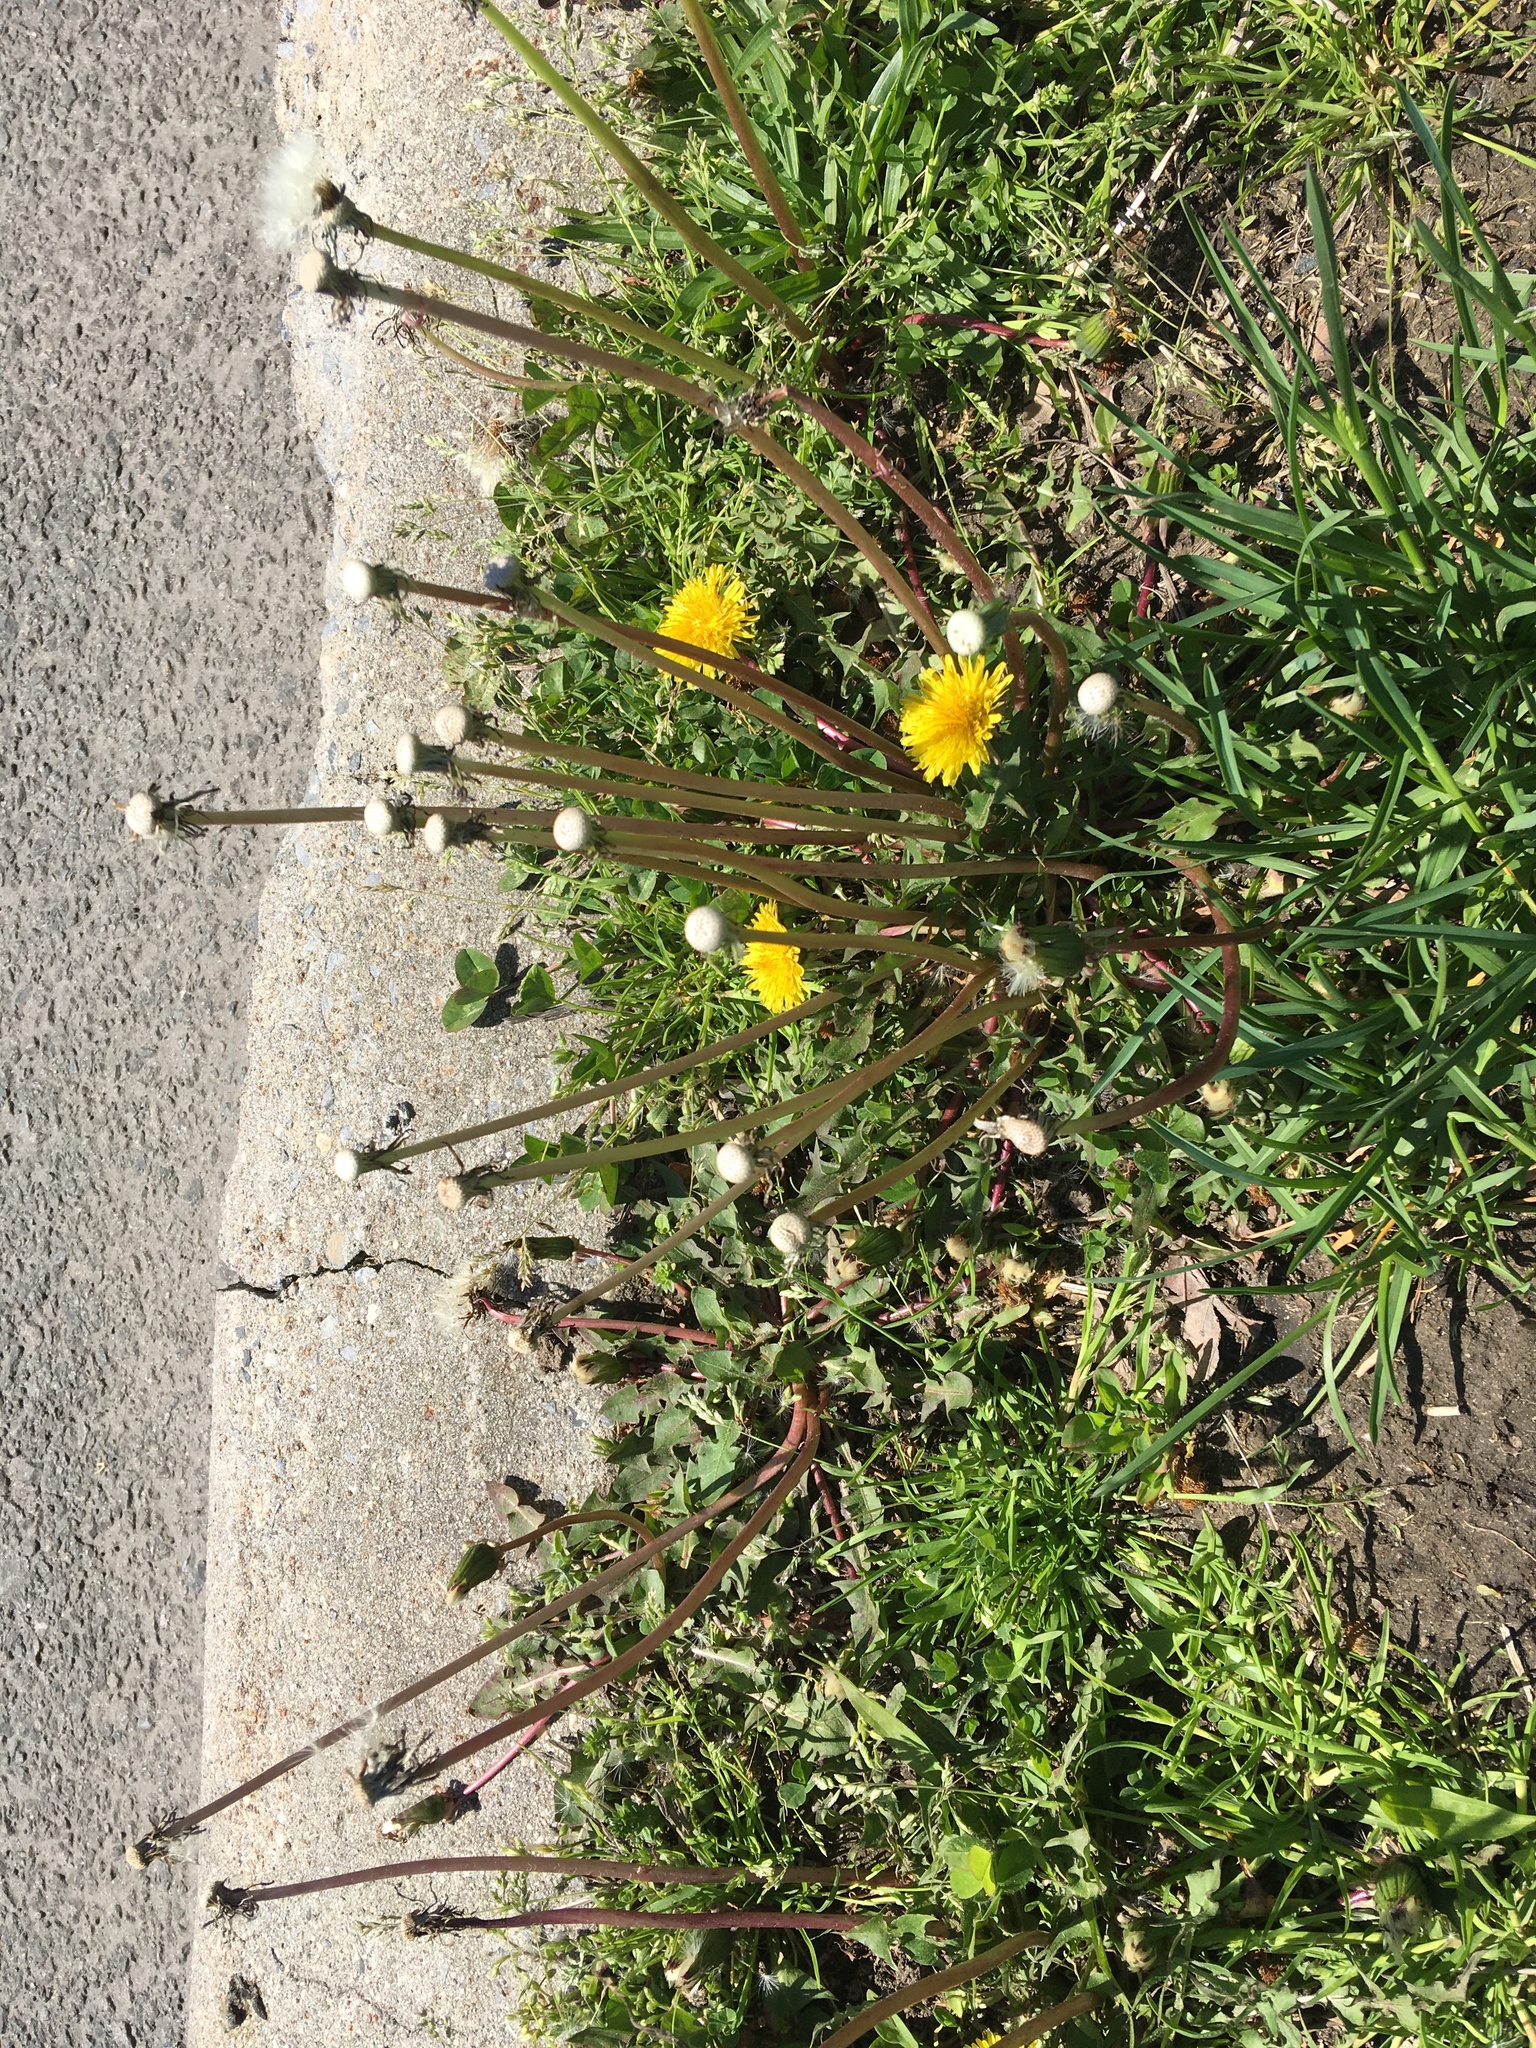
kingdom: Plantae
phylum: Tracheophyta
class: Magnoliopsida
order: Asterales
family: Asteraceae
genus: Taraxacum
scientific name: Taraxacum officinale
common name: Common dandelion
